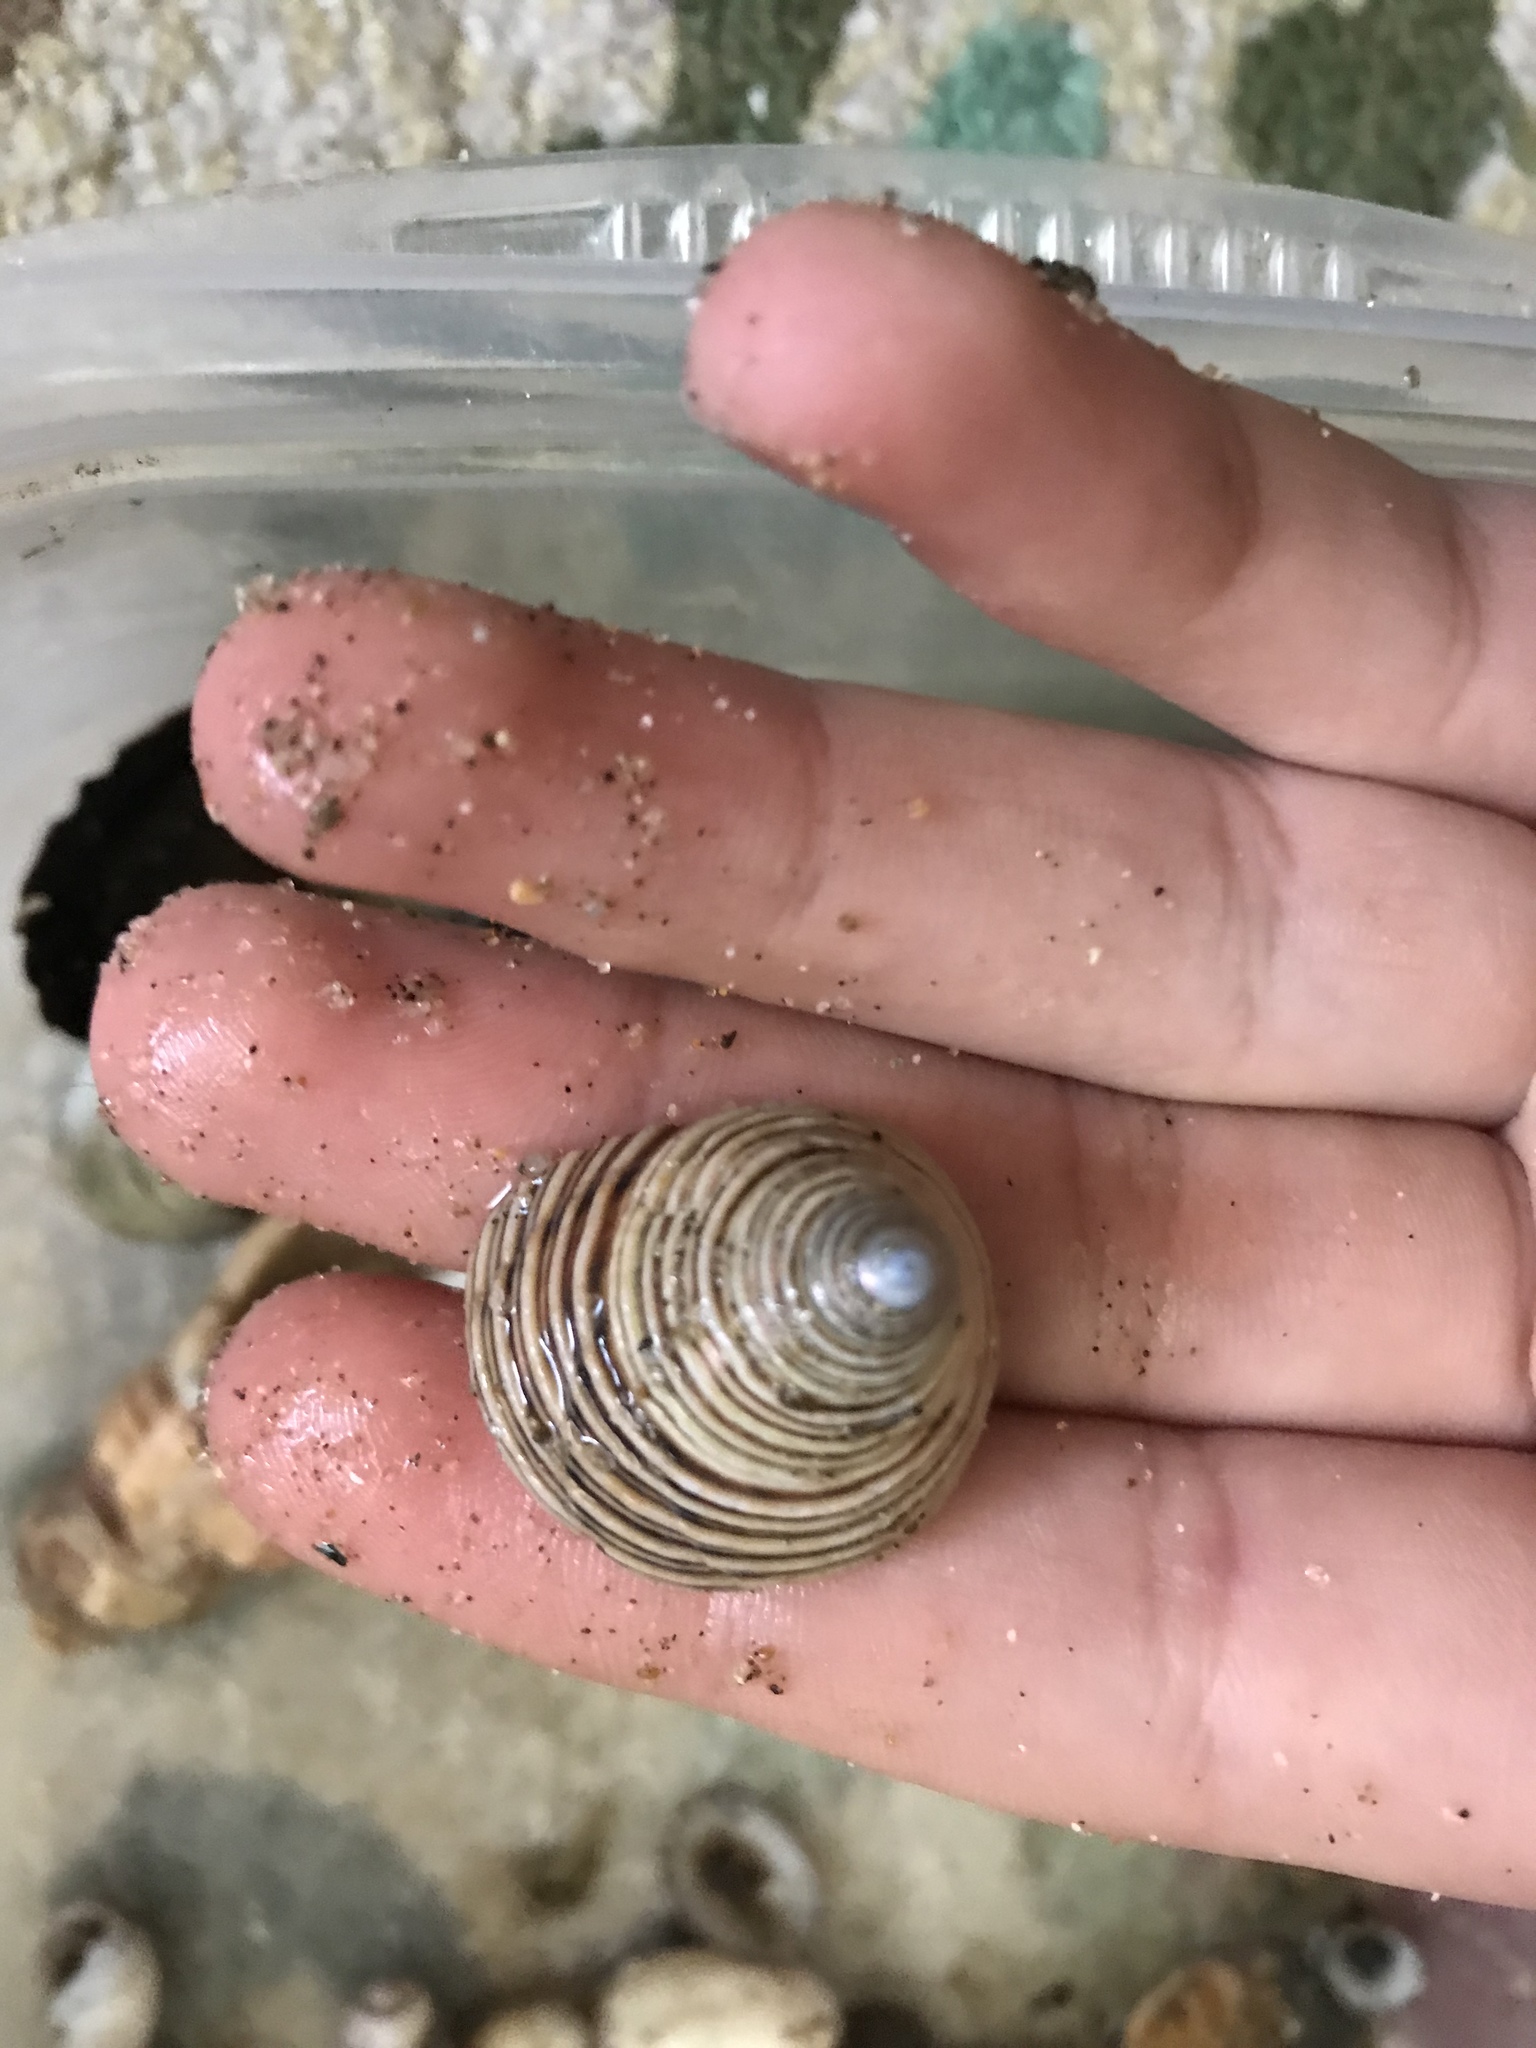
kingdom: Animalia
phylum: Mollusca
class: Gastropoda
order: Trochida
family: Calliostomatidae
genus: Calliostoma
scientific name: Calliostoma canaliculatum
